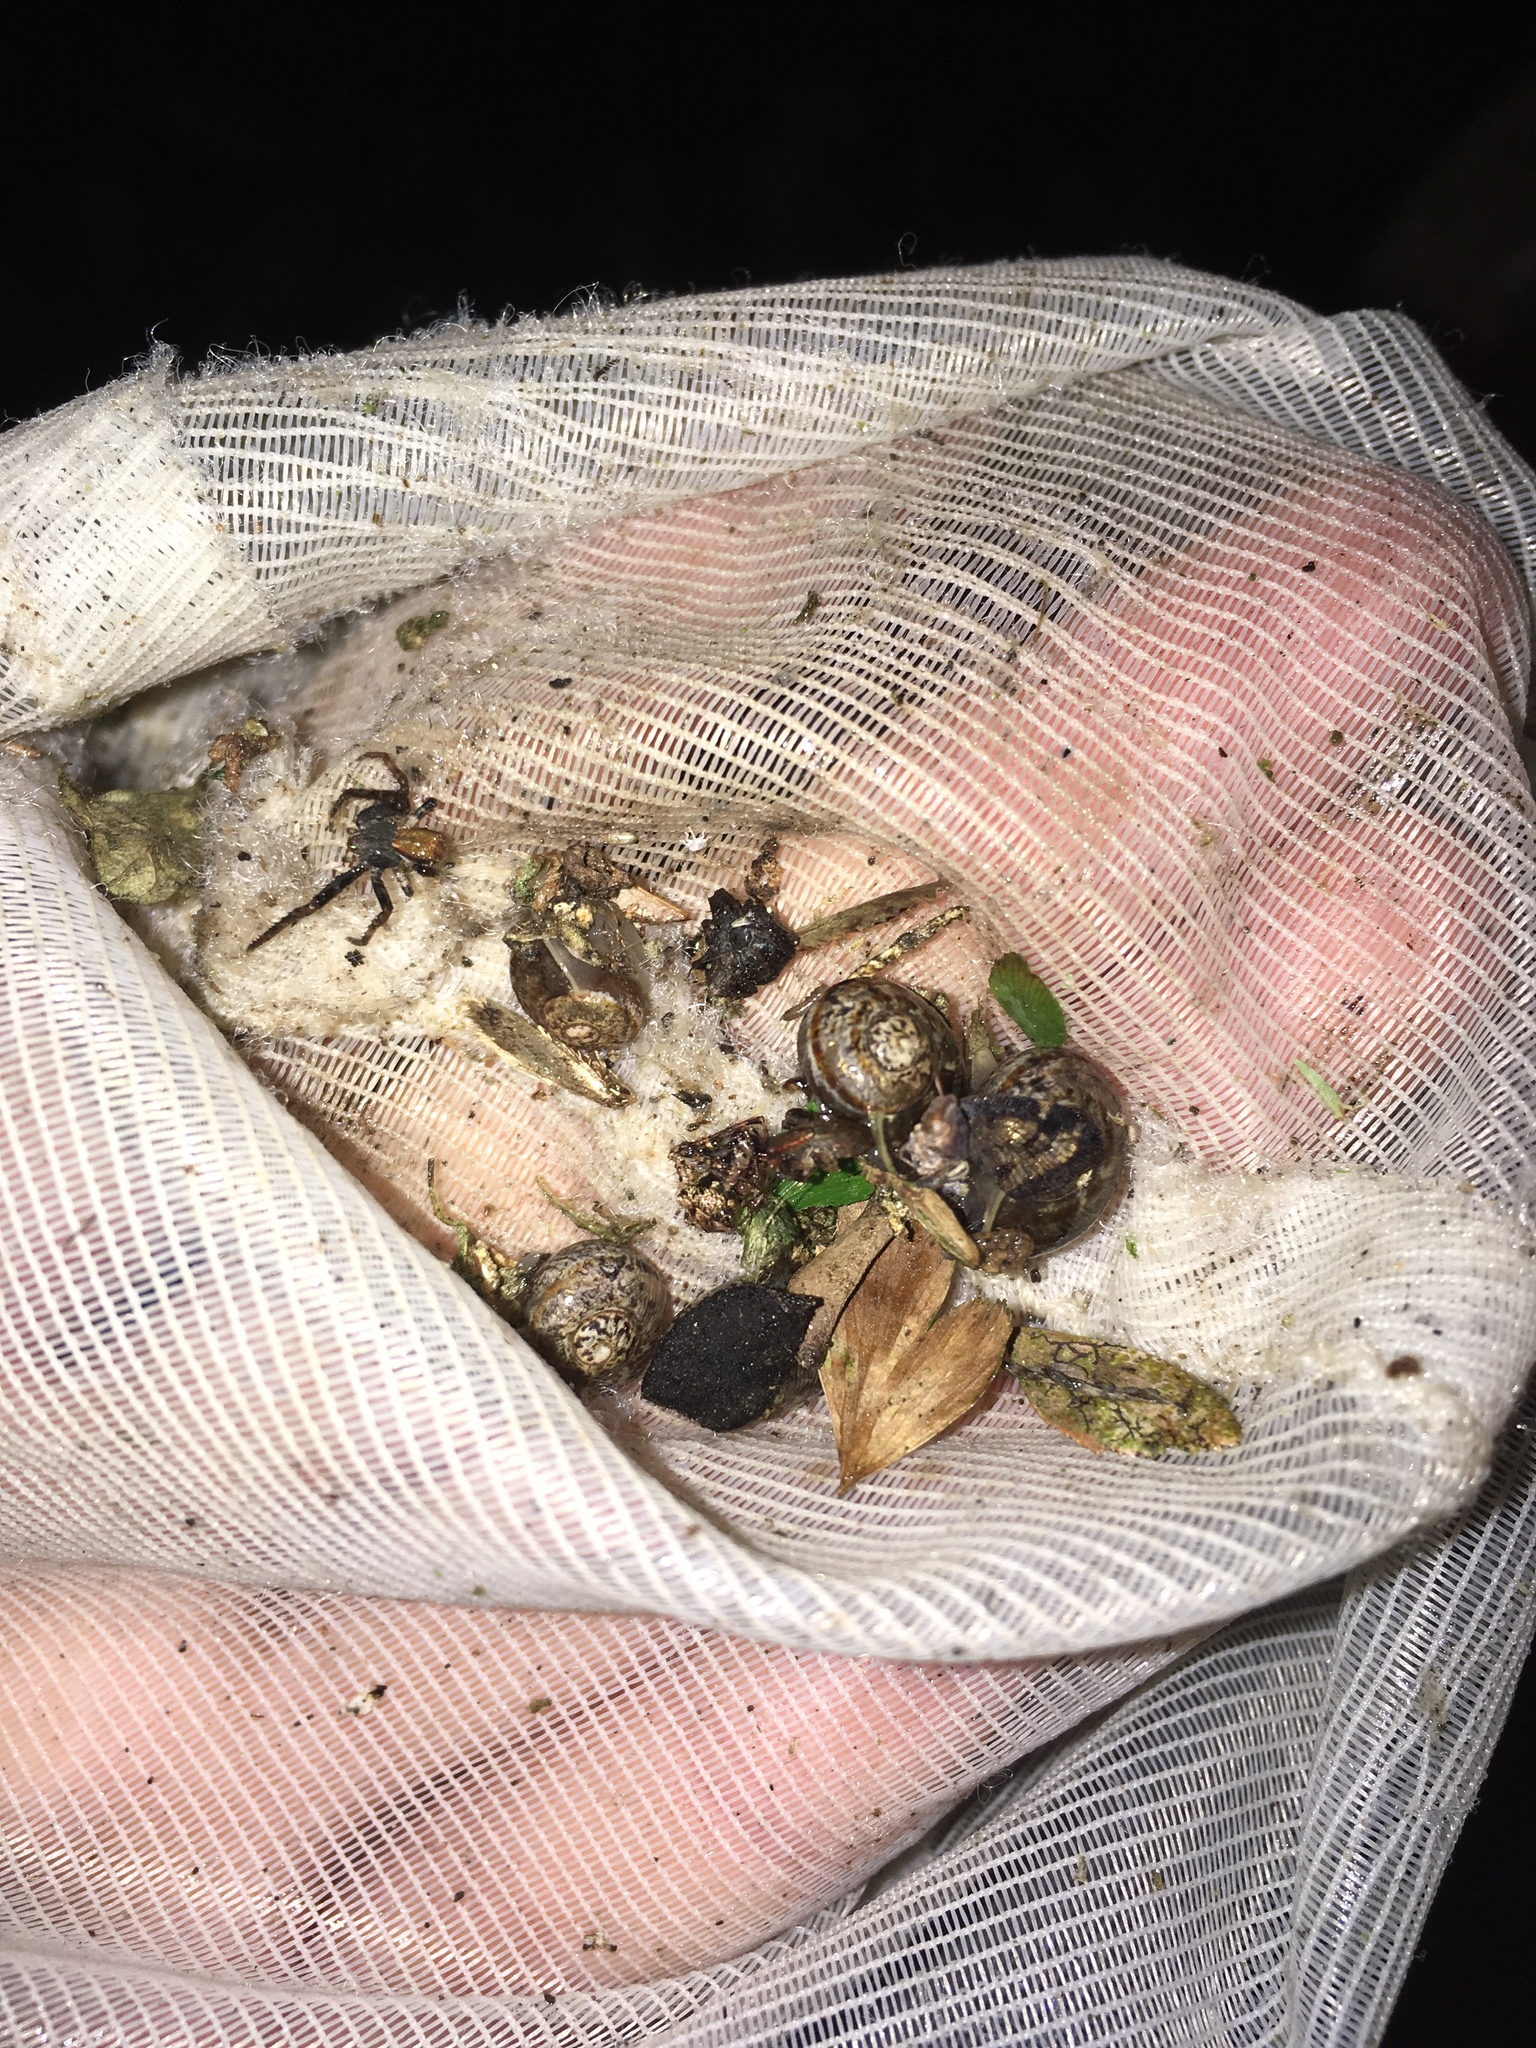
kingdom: Animalia
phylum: Mollusca
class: Gastropoda
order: Stylommatophora
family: Helicidae
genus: Cornu
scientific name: Cornu aspersum
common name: Brown garden snail
